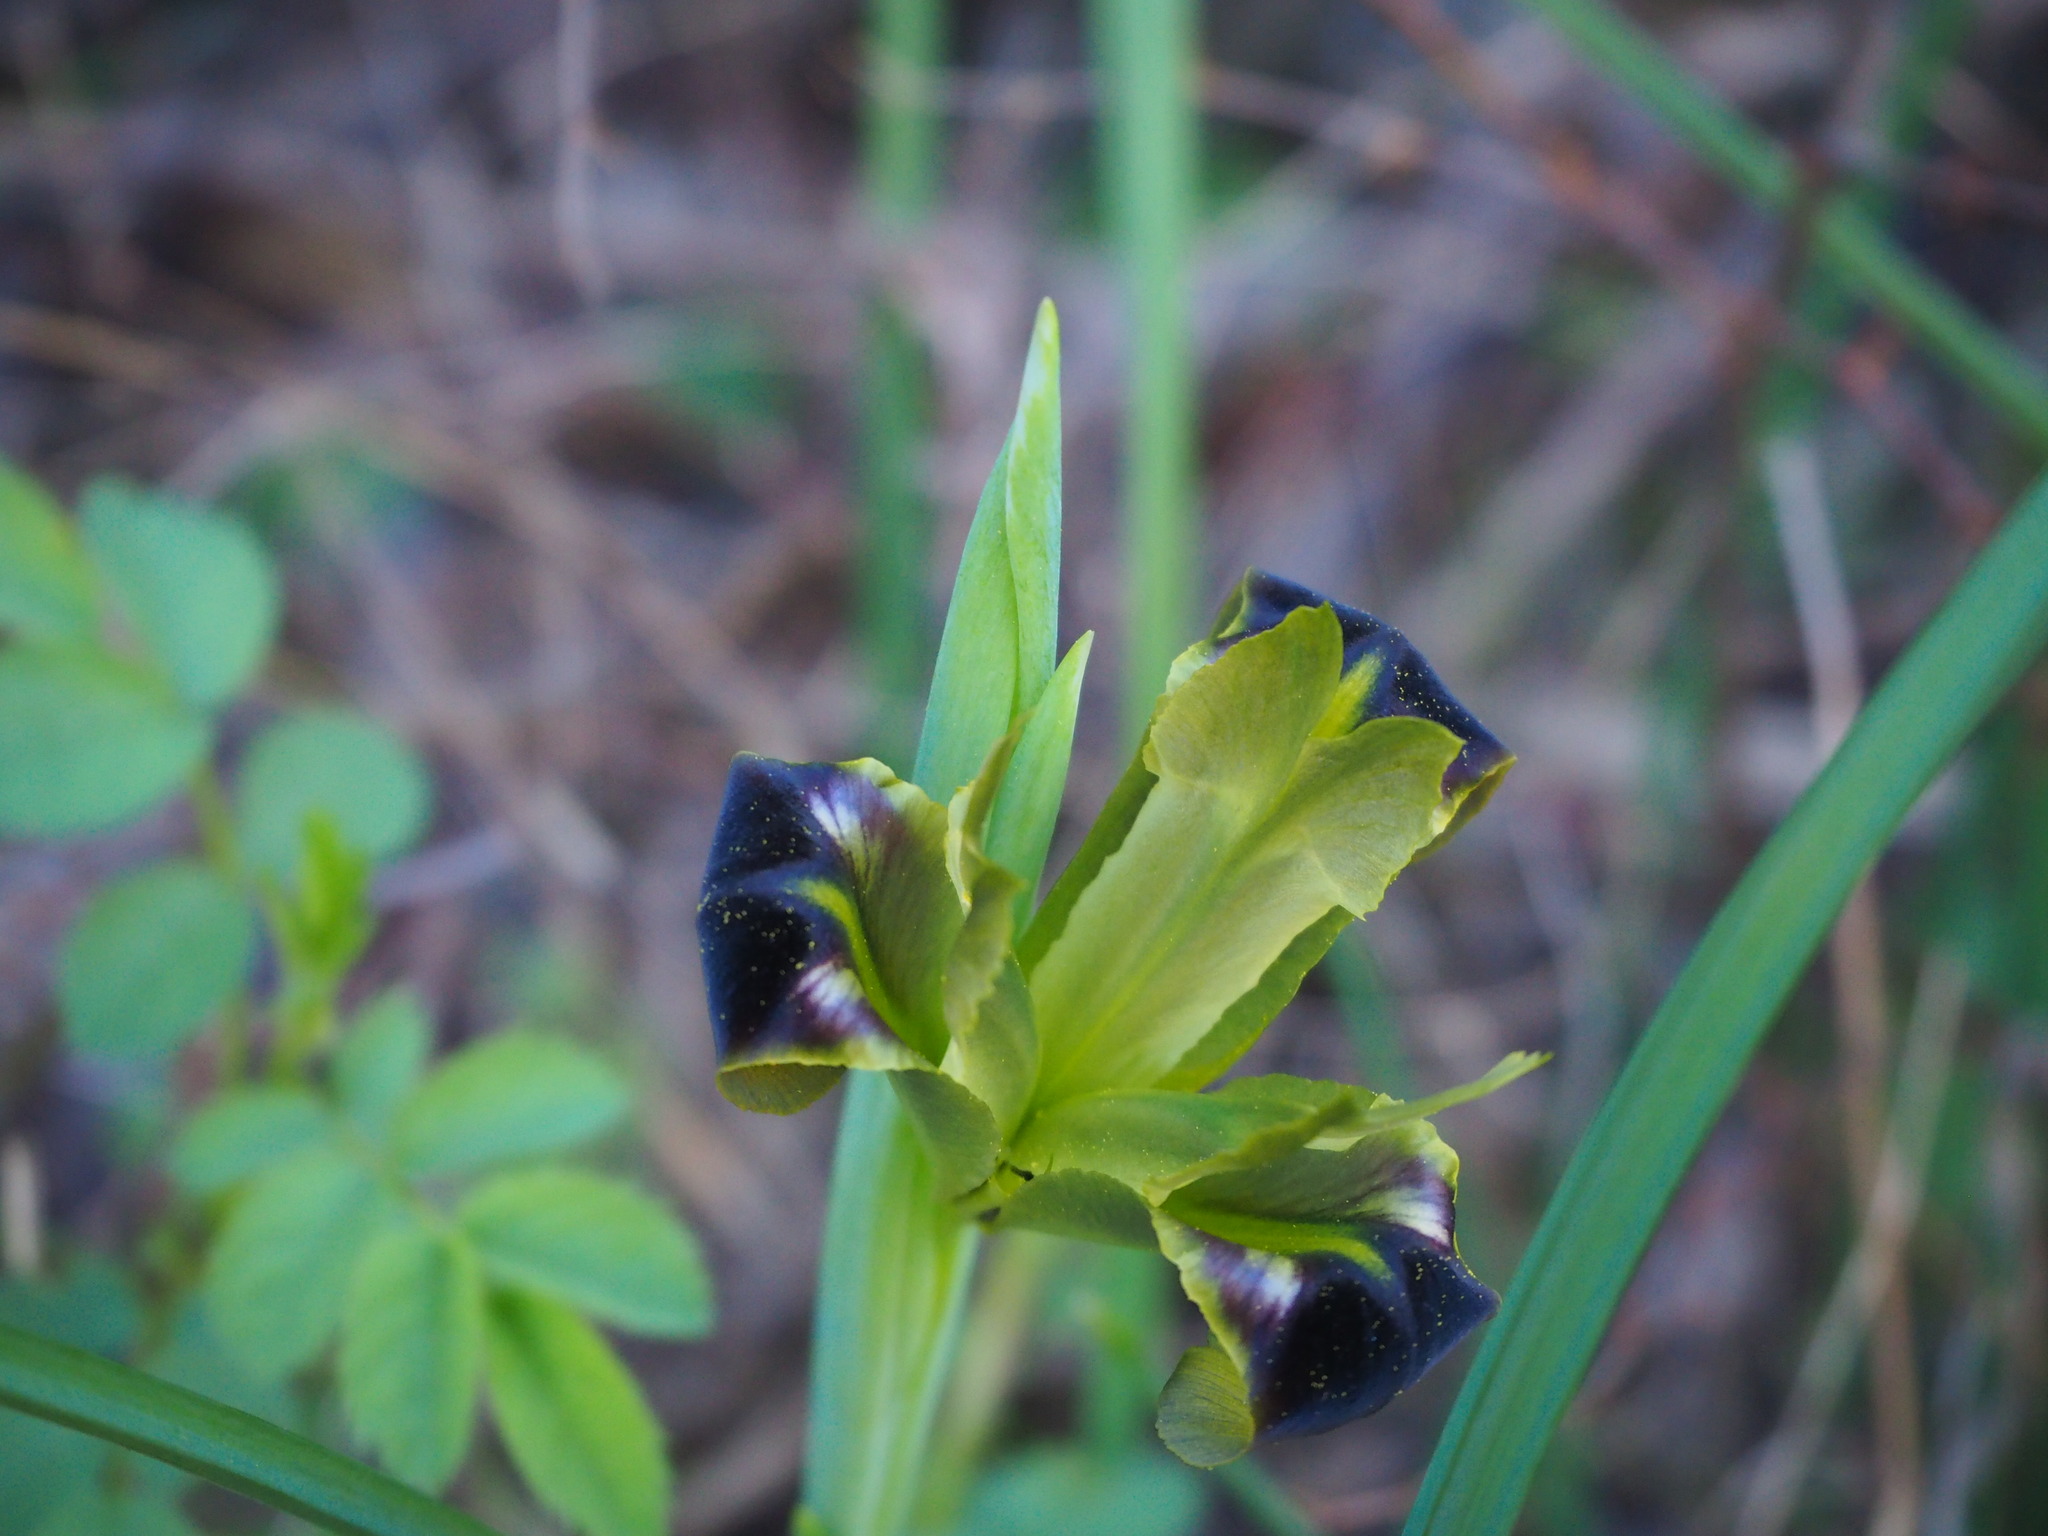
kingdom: Plantae
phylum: Tracheophyta
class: Liliopsida
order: Asparagales
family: Iridaceae
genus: Iris
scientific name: Iris tuberosa
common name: Snake's-head iris
